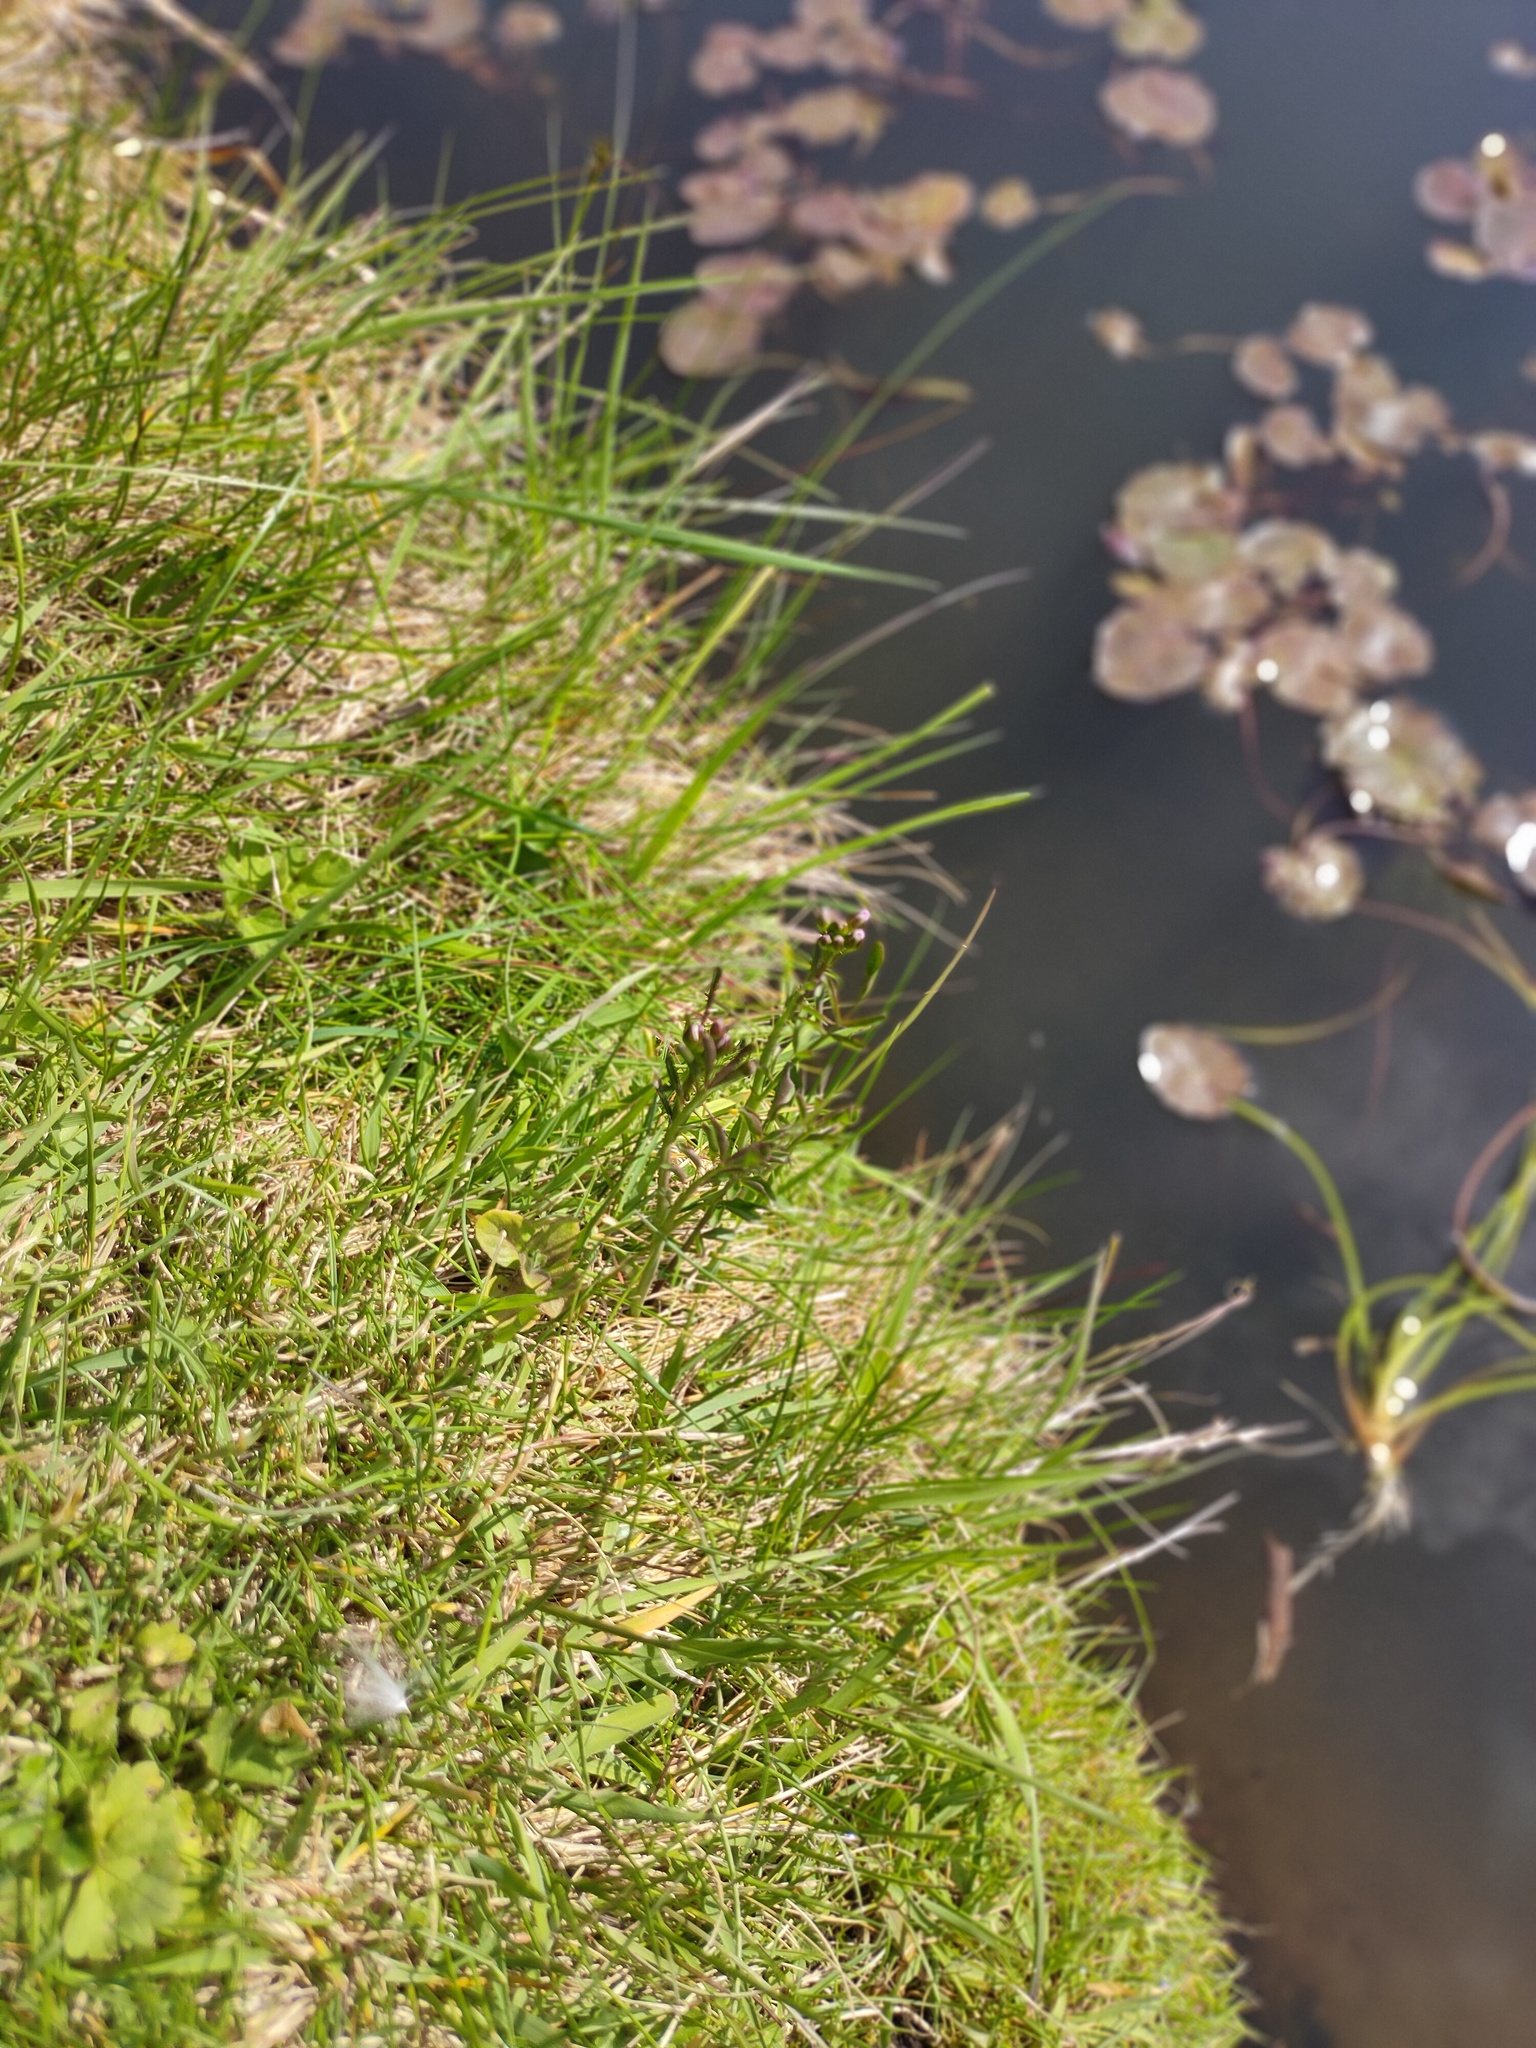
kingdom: Plantae
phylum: Tracheophyta
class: Magnoliopsida
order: Brassicales
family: Brassicaceae
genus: Cardamine
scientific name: Cardamine pratensis
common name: Cuckoo flower
